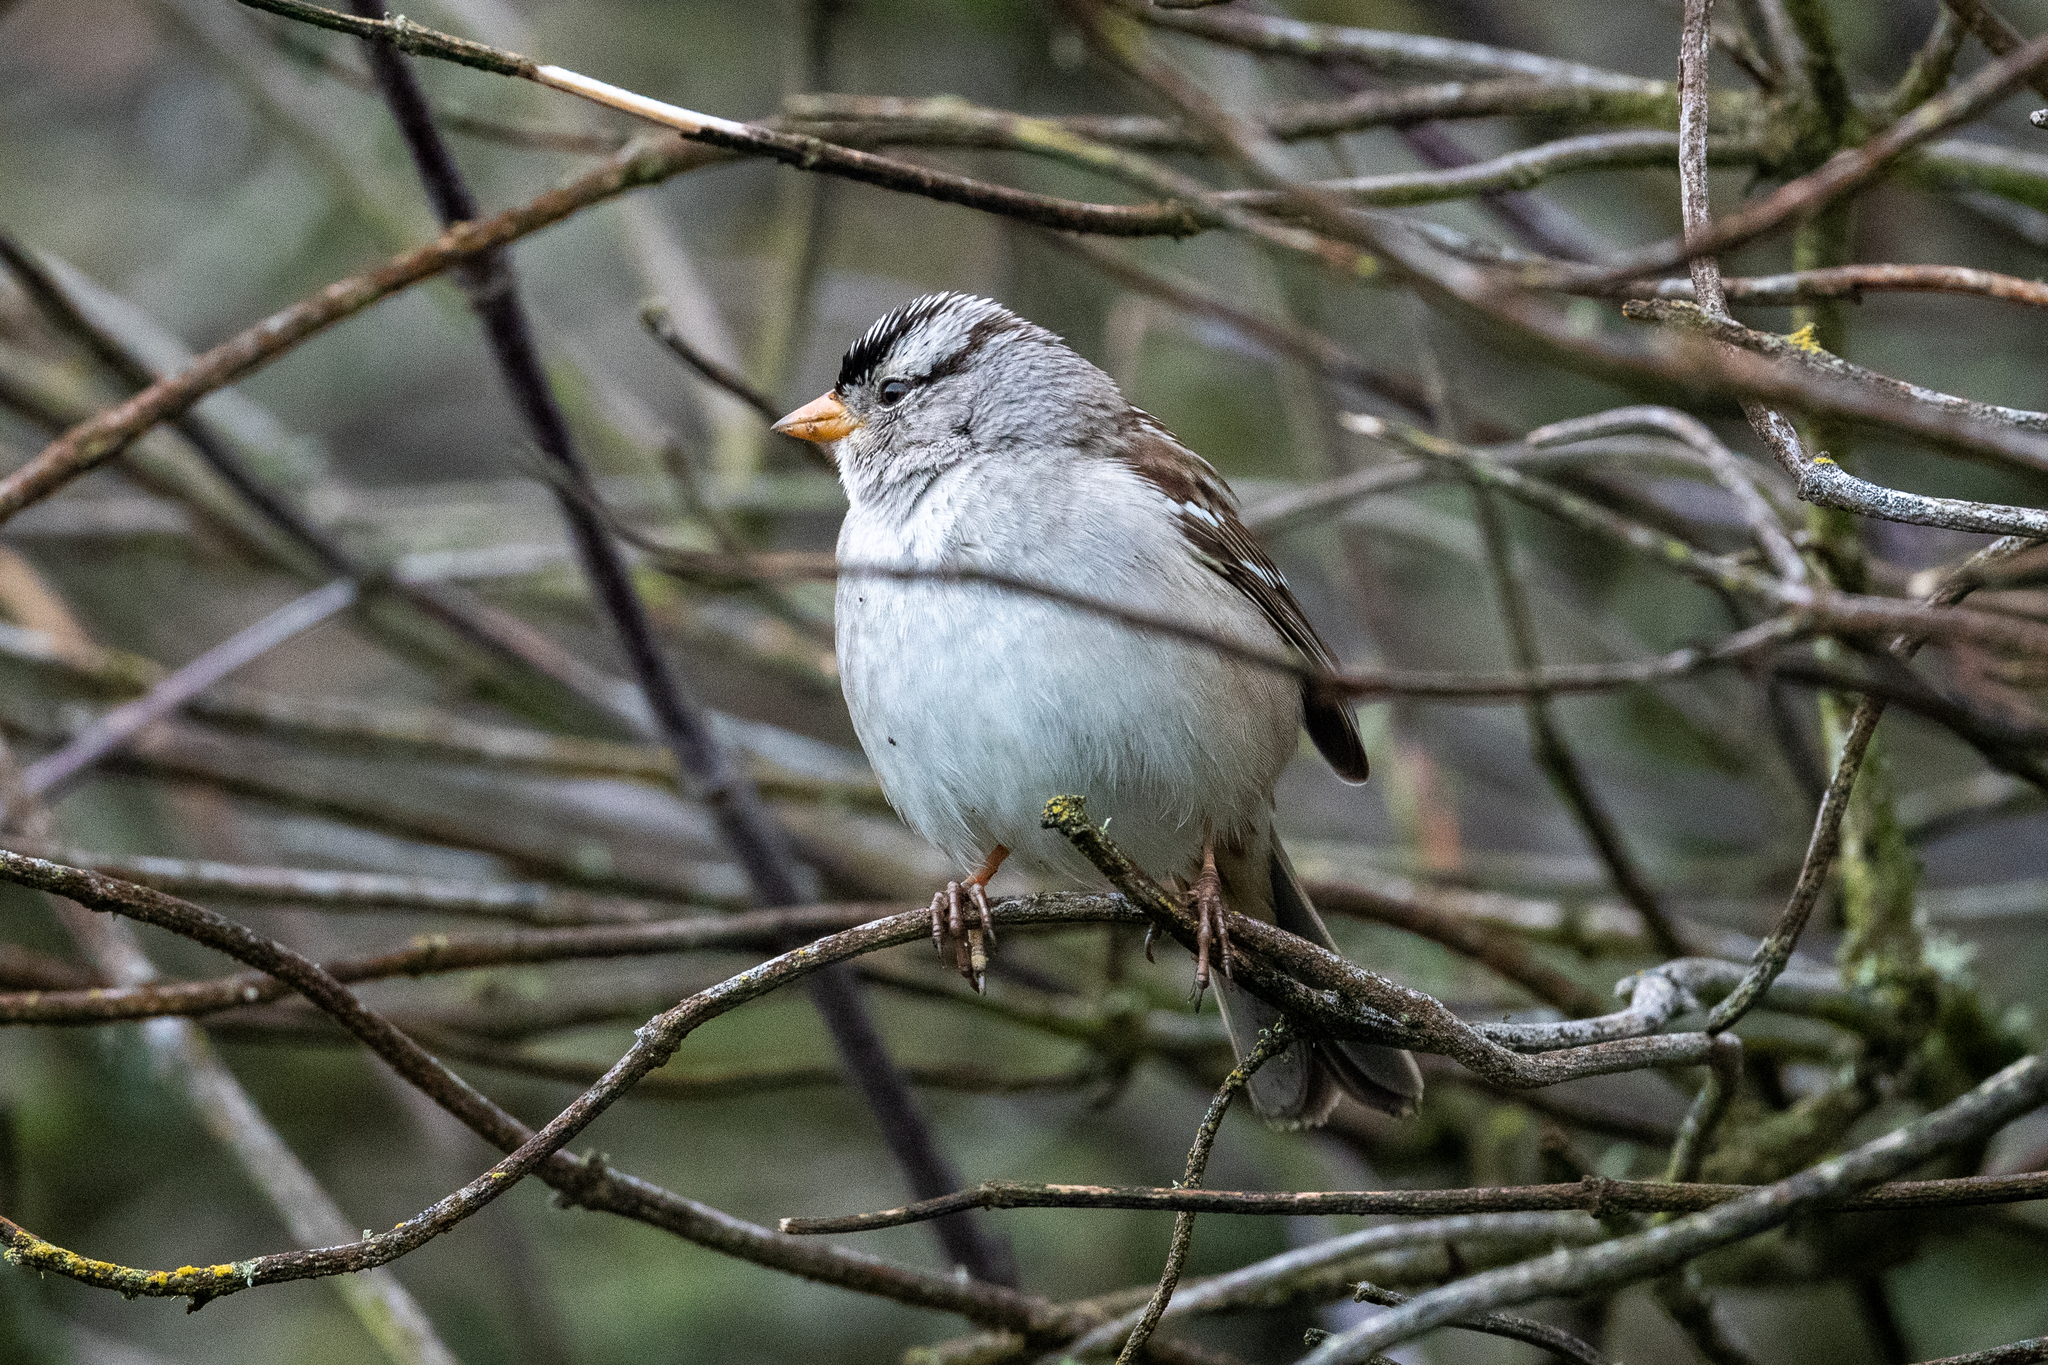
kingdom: Animalia
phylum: Chordata
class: Aves
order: Passeriformes
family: Passerellidae
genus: Zonotrichia
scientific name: Zonotrichia leucophrys
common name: White-crowned sparrow
